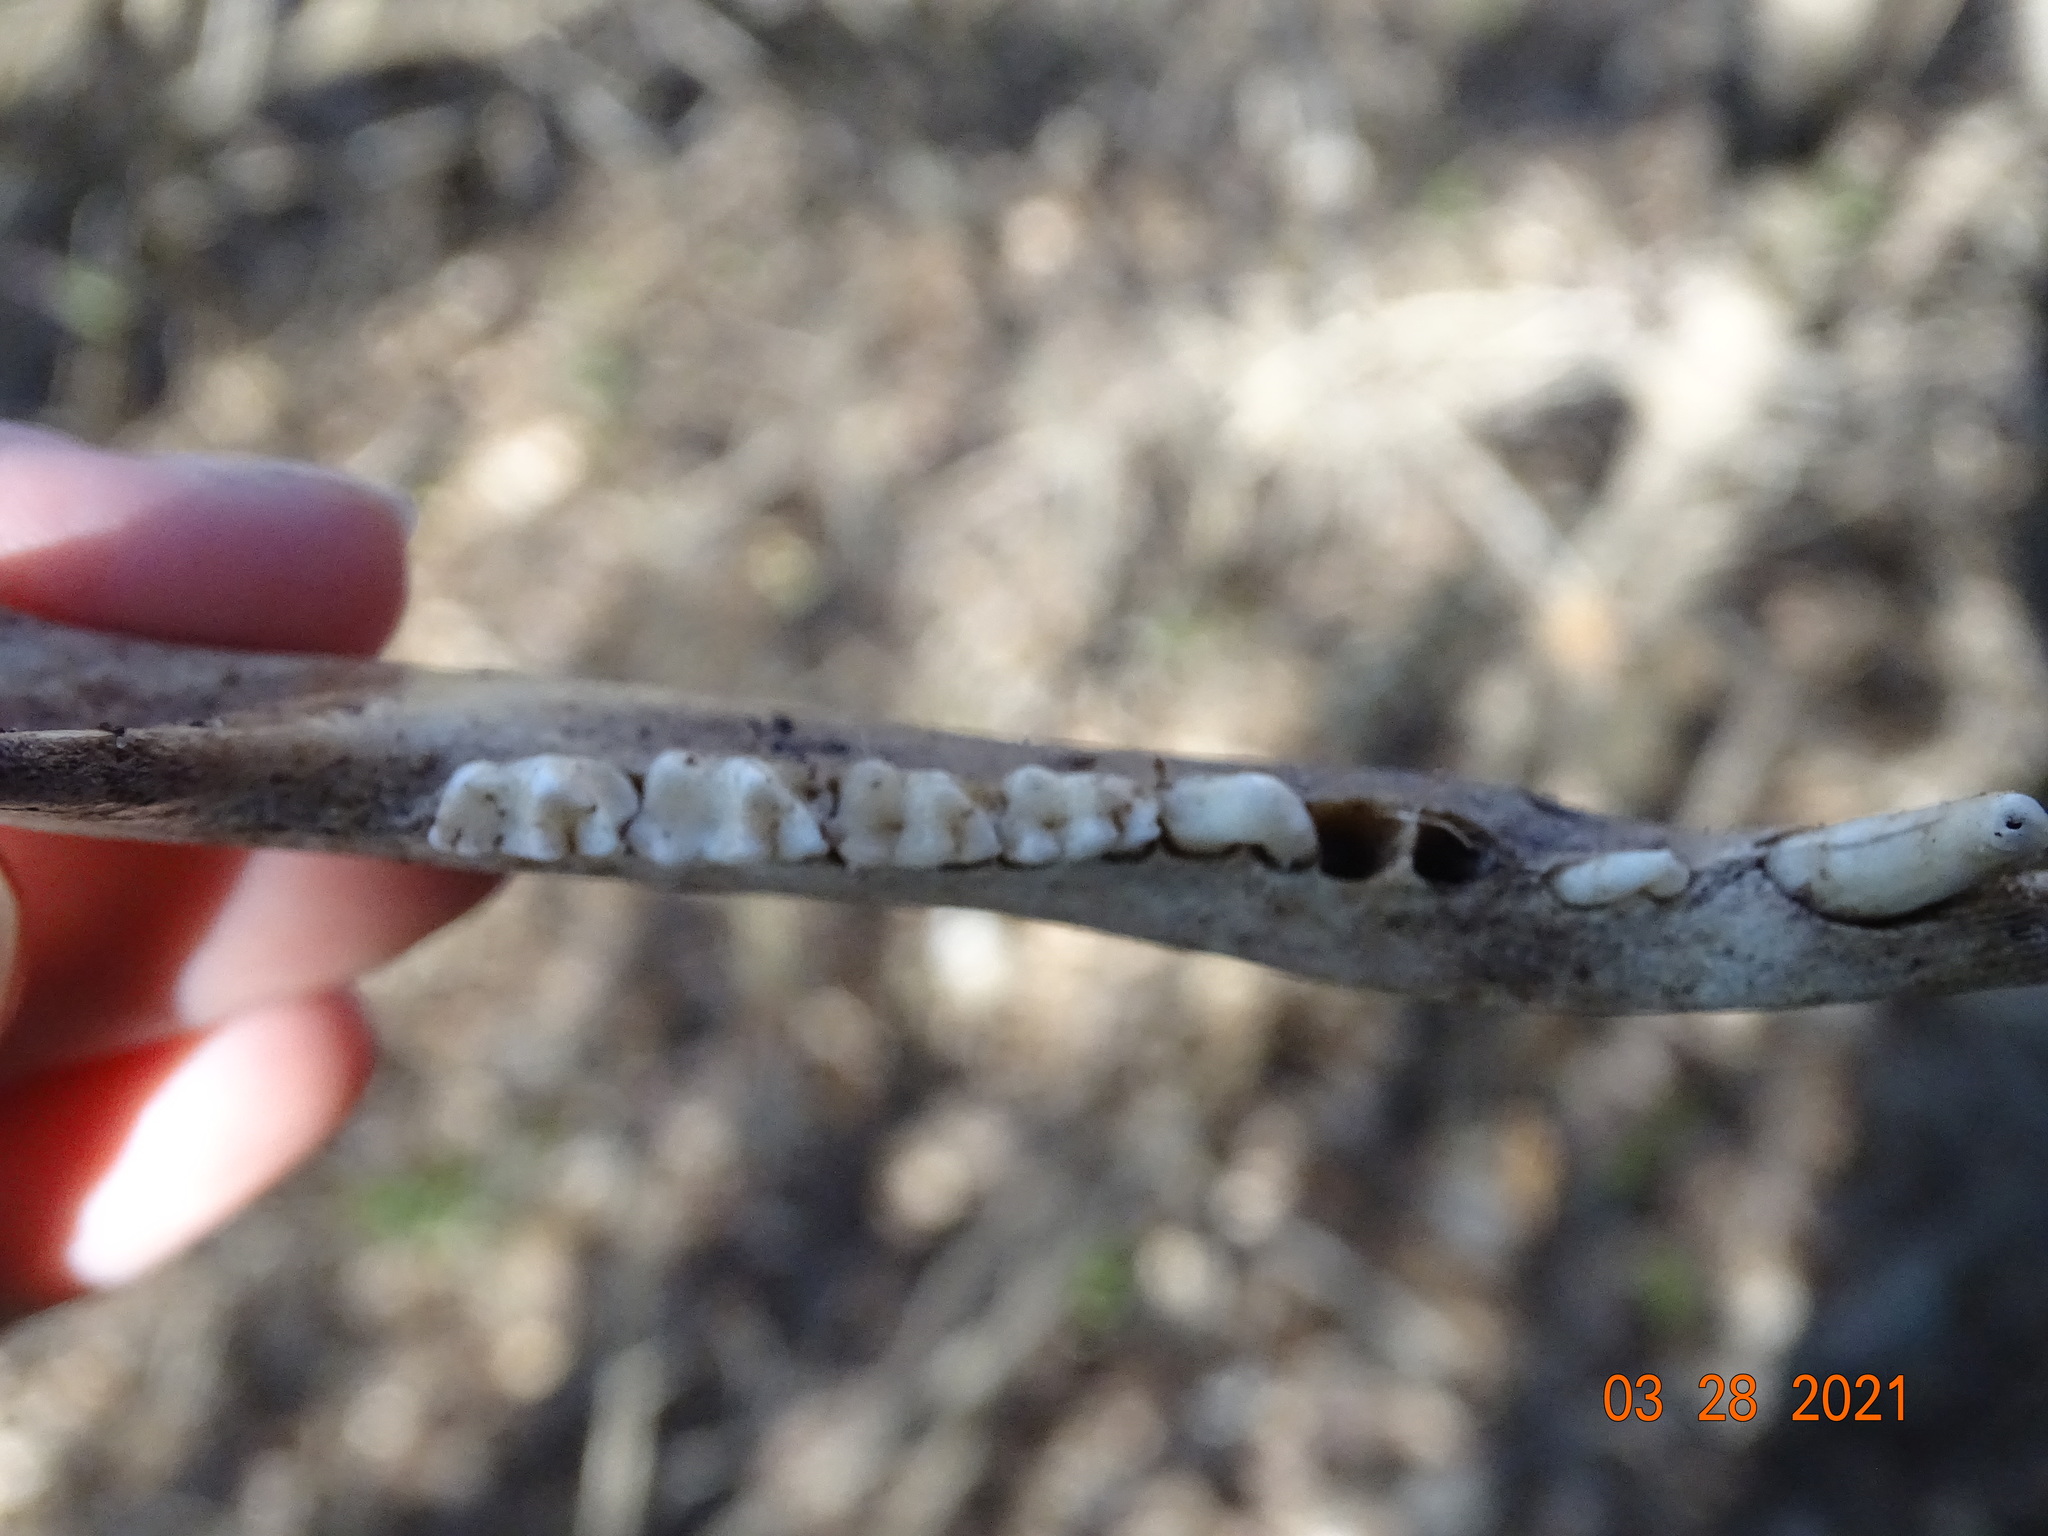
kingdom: Animalia
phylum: Chordata
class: Mammalia
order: Didelphimorphia
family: Didelphidae
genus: Didelphis
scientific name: Didelphis virginiana
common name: Virginia opossum
